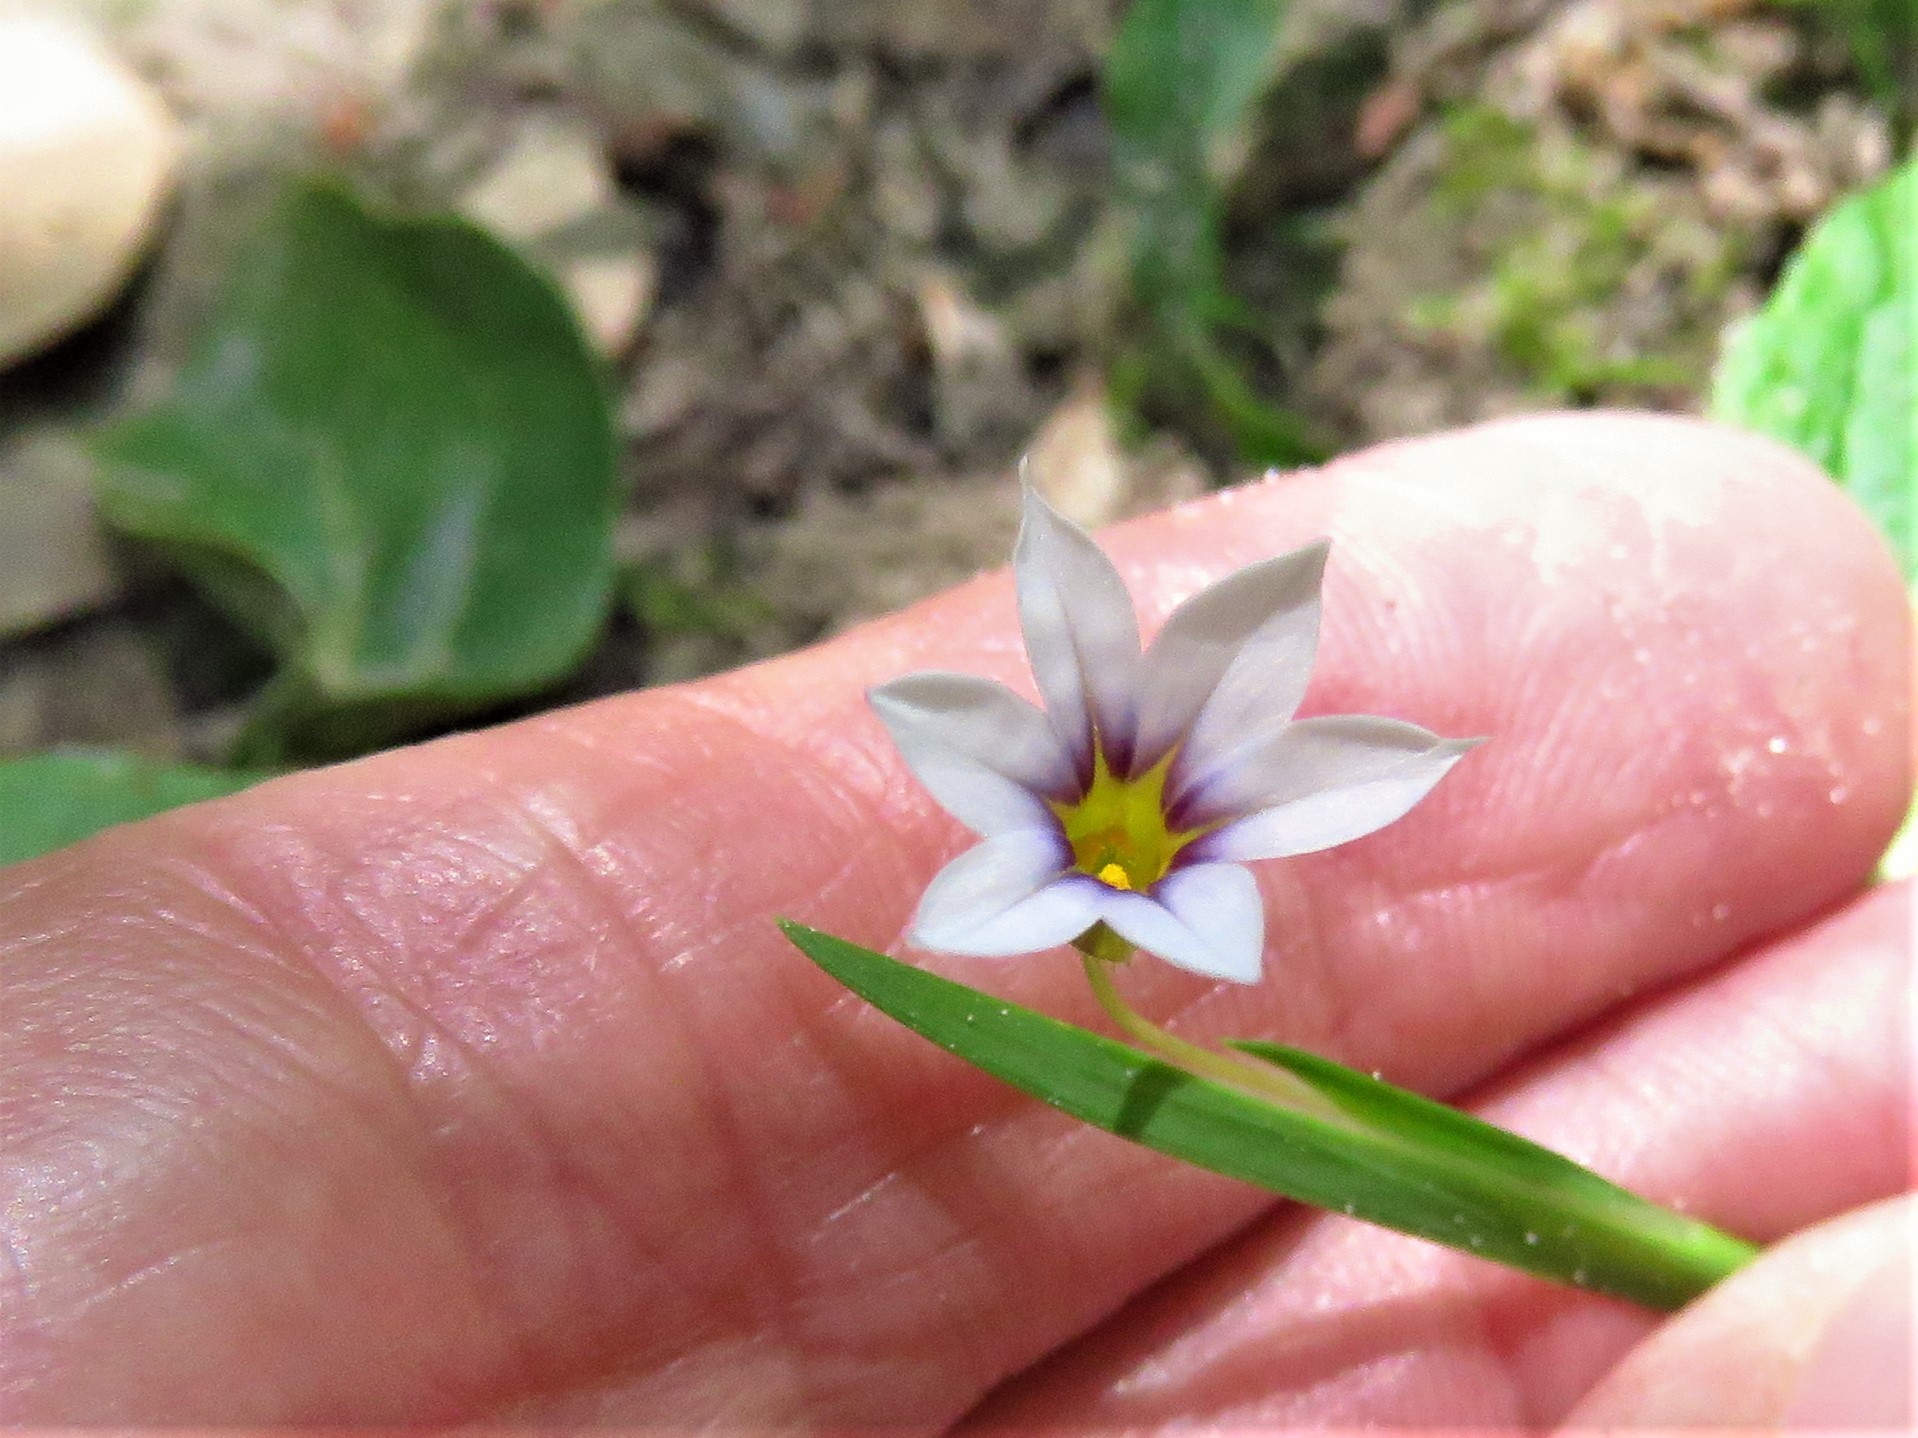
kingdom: Plantae
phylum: Tracheophyta
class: Liliopsida
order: Asparagales
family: Iridaceae
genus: Sisyrinchium
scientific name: Sisyrinchium micranthum
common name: Bermuda pigroot
